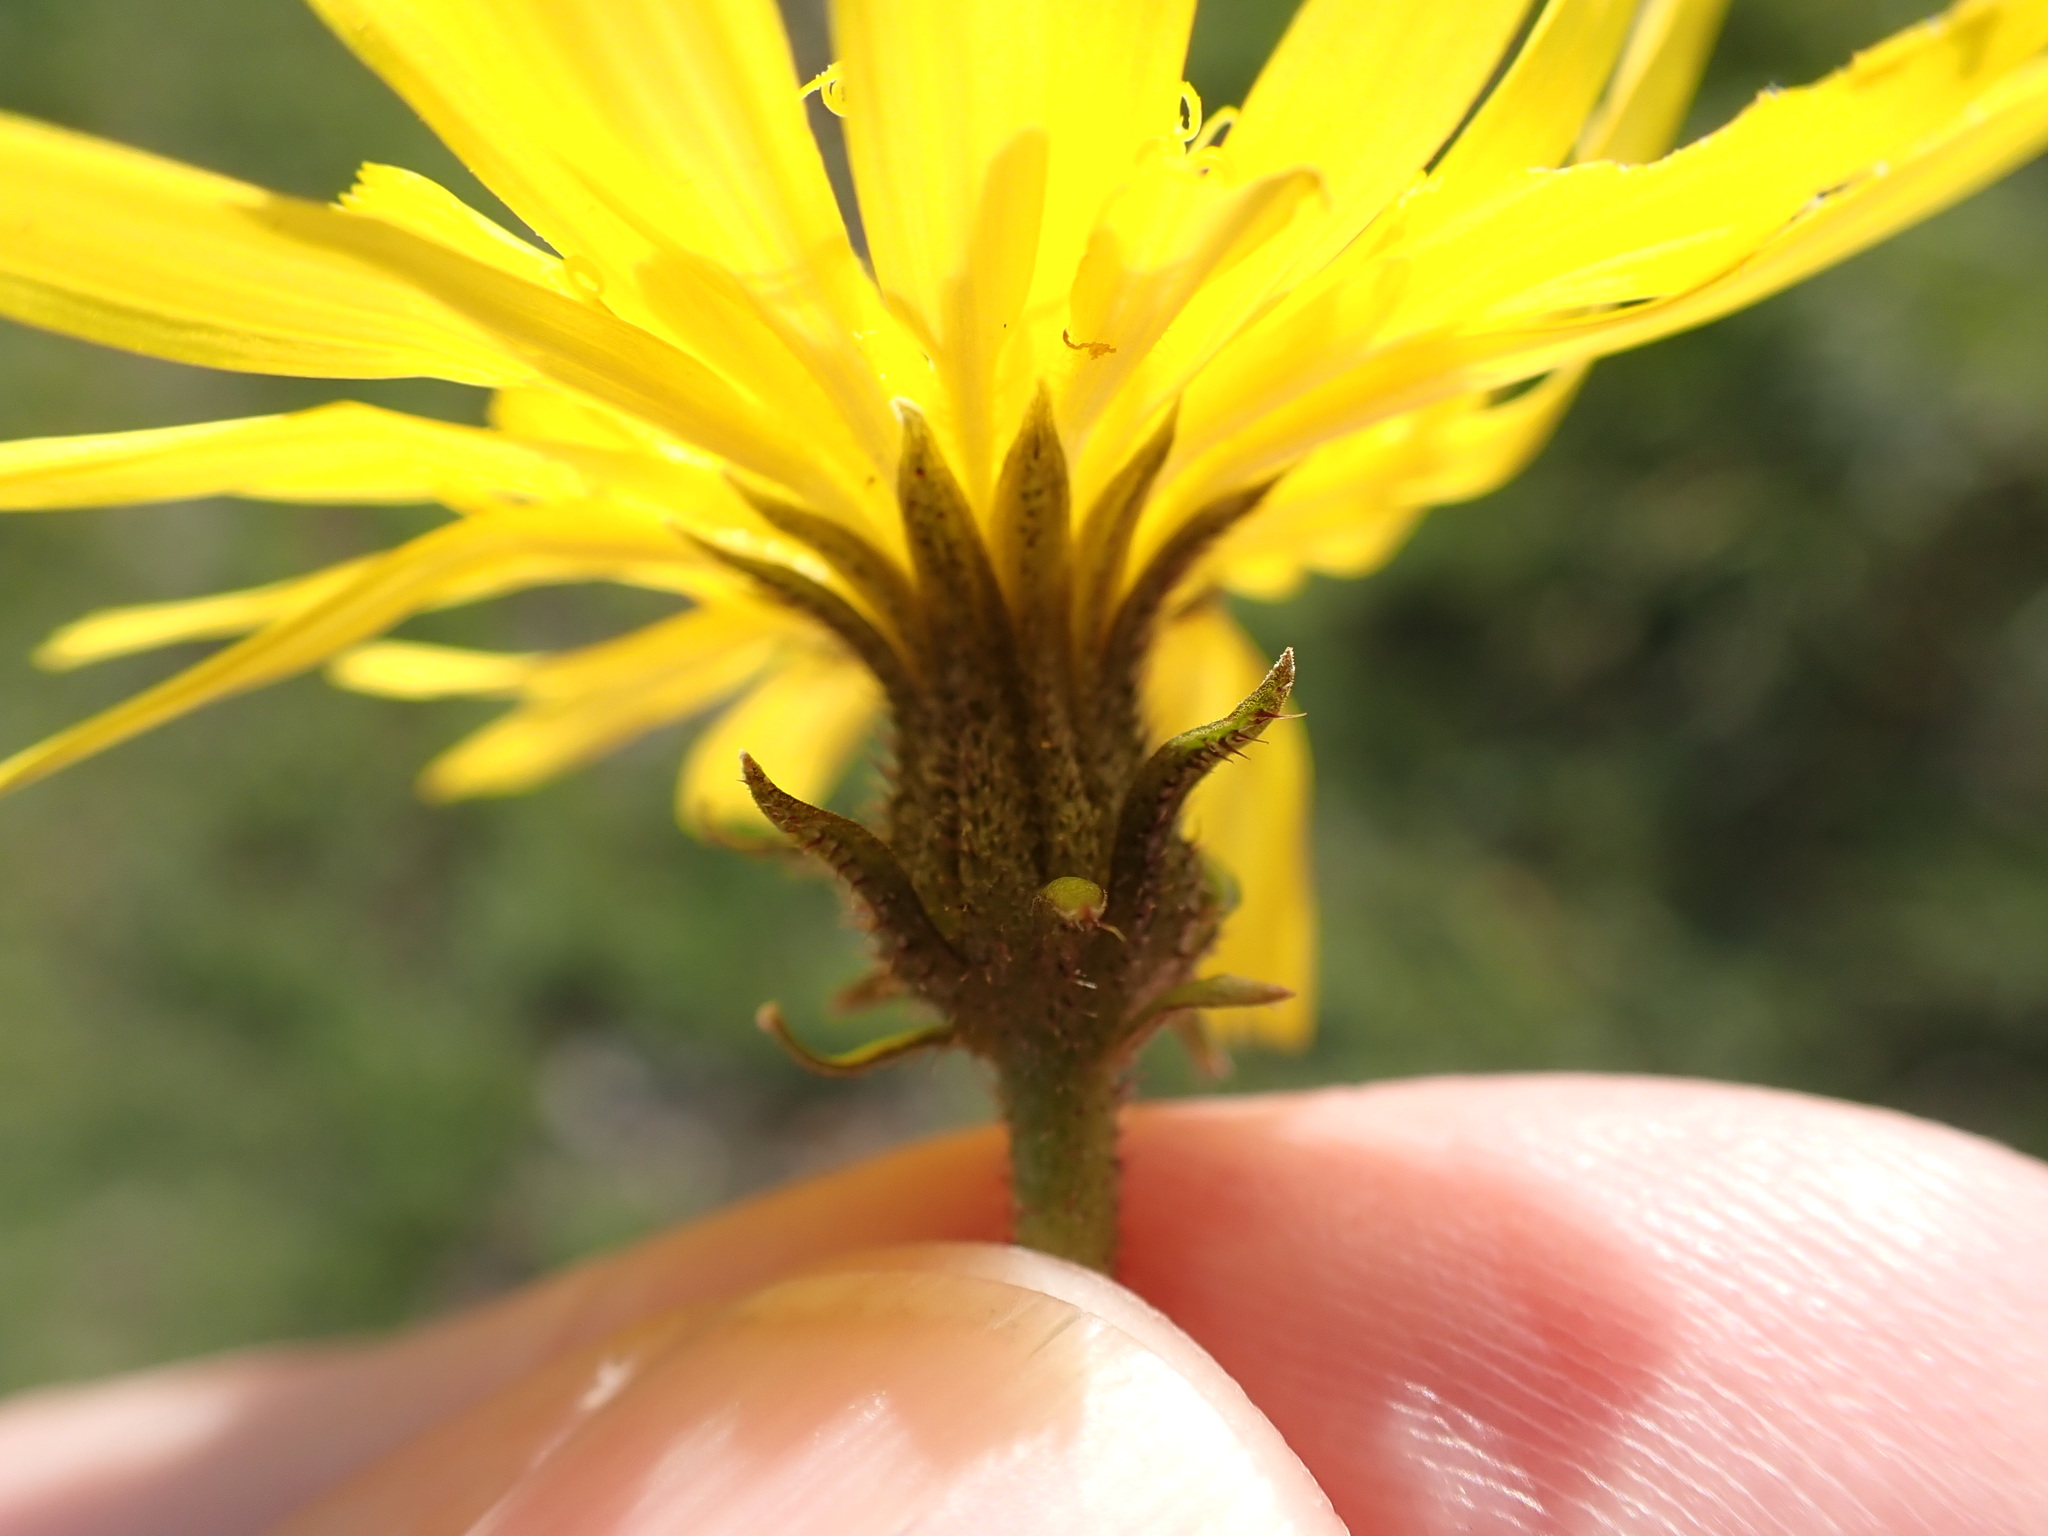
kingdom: Plantae
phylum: Tracheophyta
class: Magnoliopsida
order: Asterales
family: Asteraceae
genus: Picris
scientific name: Picris hieracioides
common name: Hawkweed oxtongue
